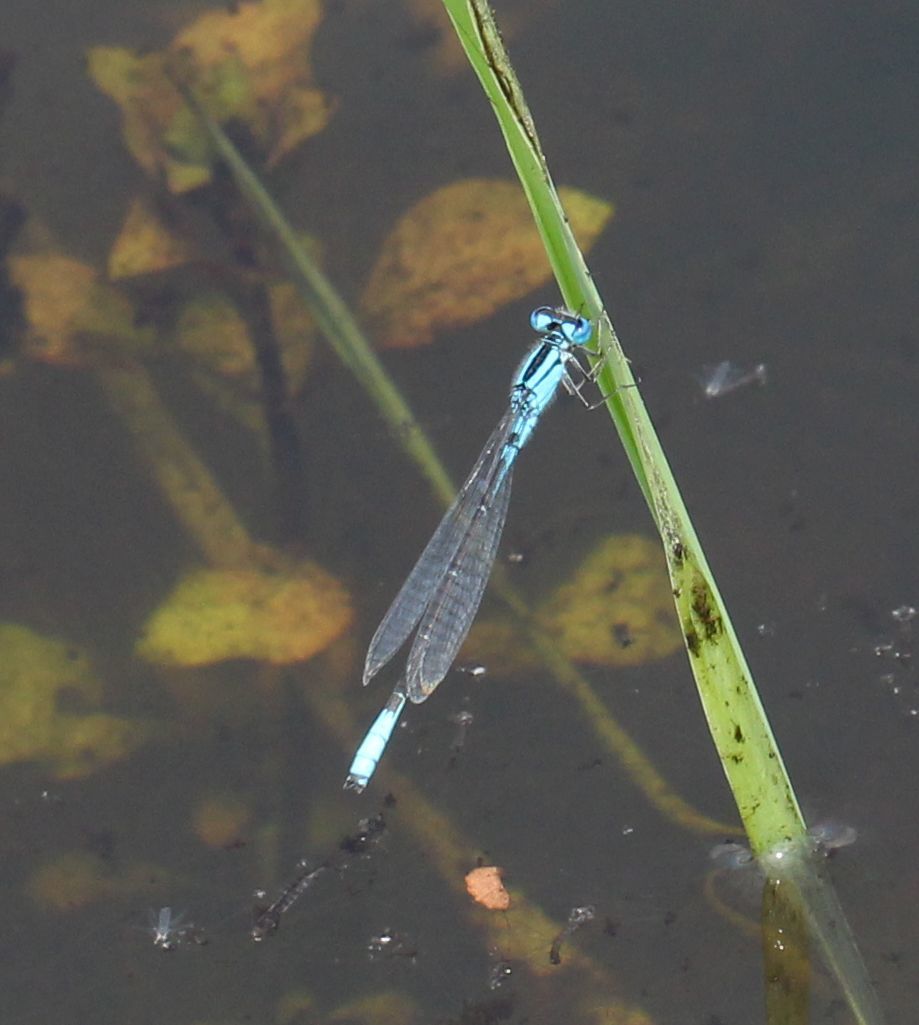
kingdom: Animalia
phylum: Arthropoda
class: Insecta
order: Odonata
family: Coenagrionidae
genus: Enallagma
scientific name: Enallagma aspersum
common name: Azure bluet
